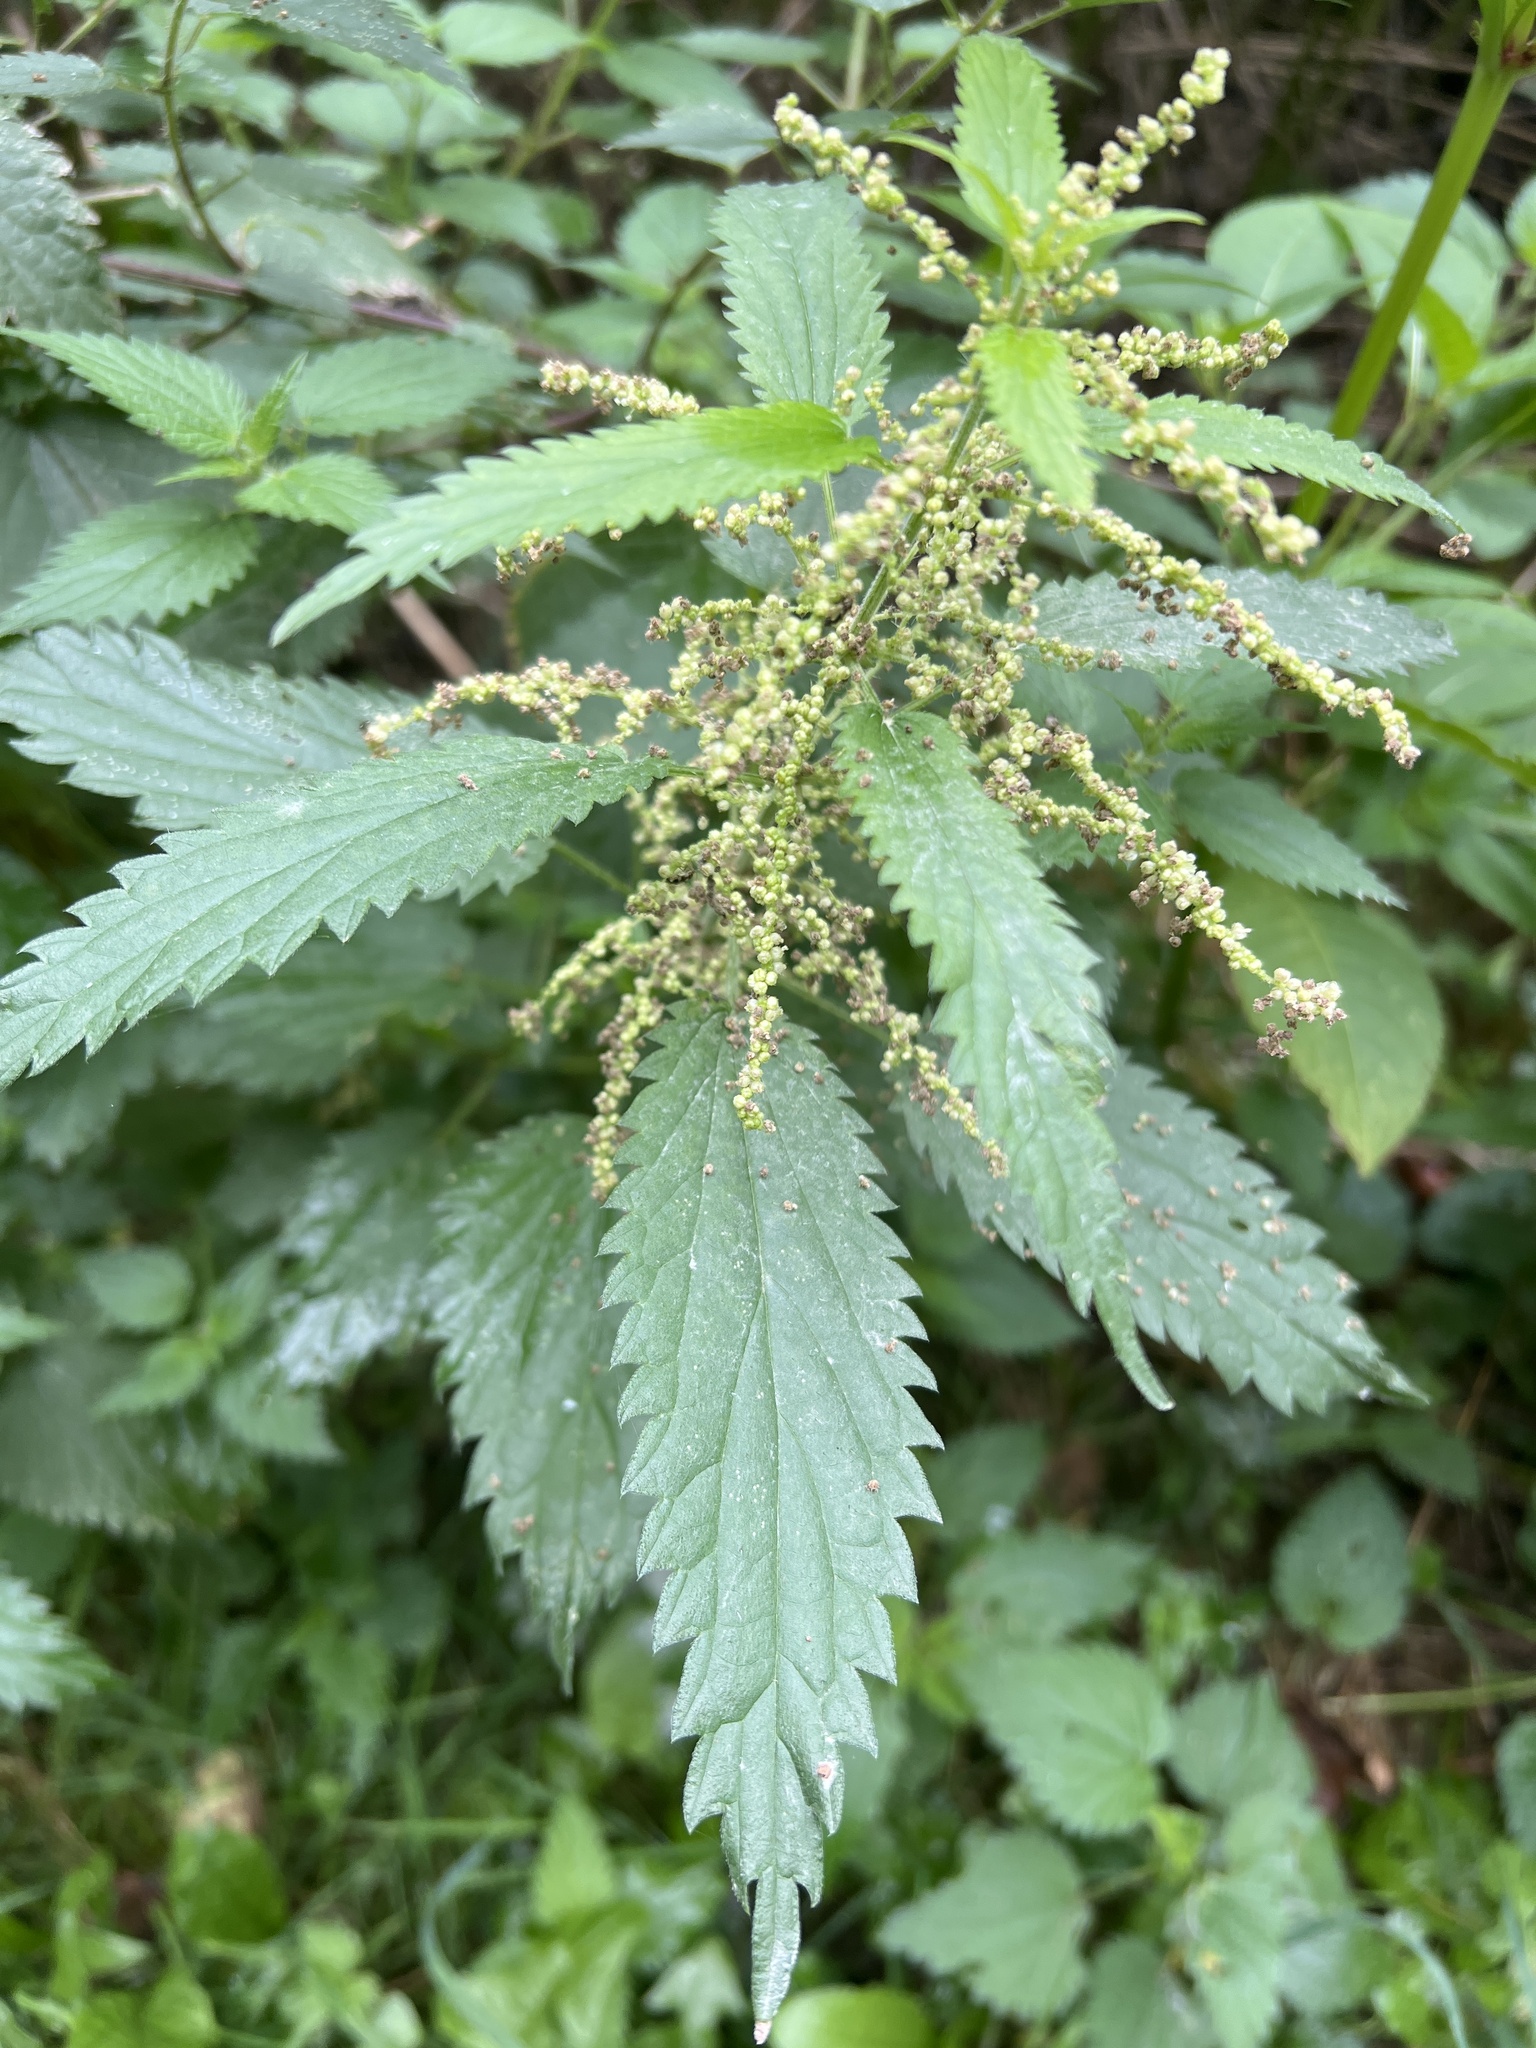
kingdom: Plantae
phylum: Tracheophyta
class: Magnoliopsida
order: Rosales
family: Urticaceae
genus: Urtica
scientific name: Urtica dioica
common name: Common nettle
